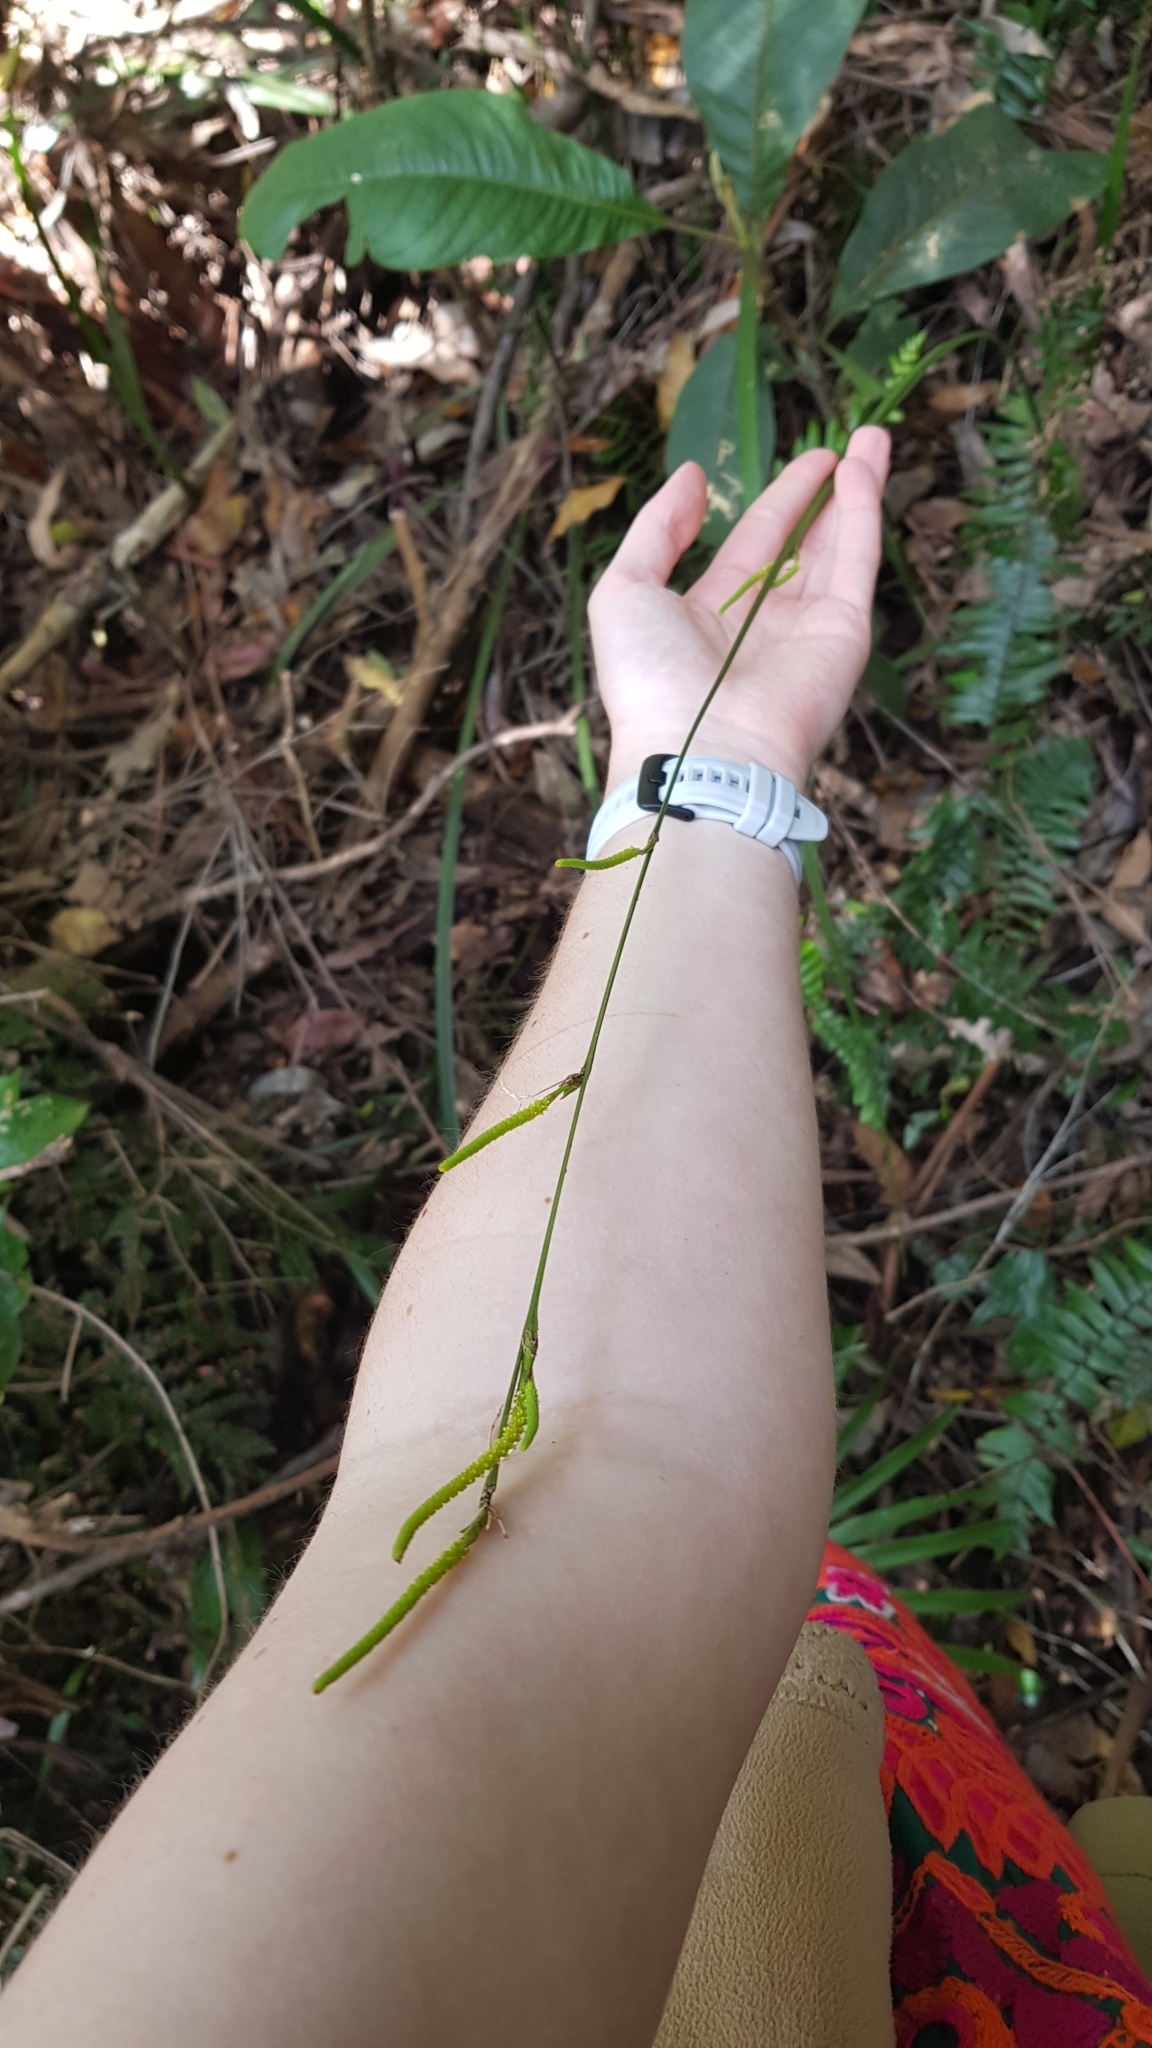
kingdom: Plantae
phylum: Tracheophyta
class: Liliopsida
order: Alismatales
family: Araceae
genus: Gymnostachys
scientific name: Gymnostachys anceps
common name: Settler's-flax
